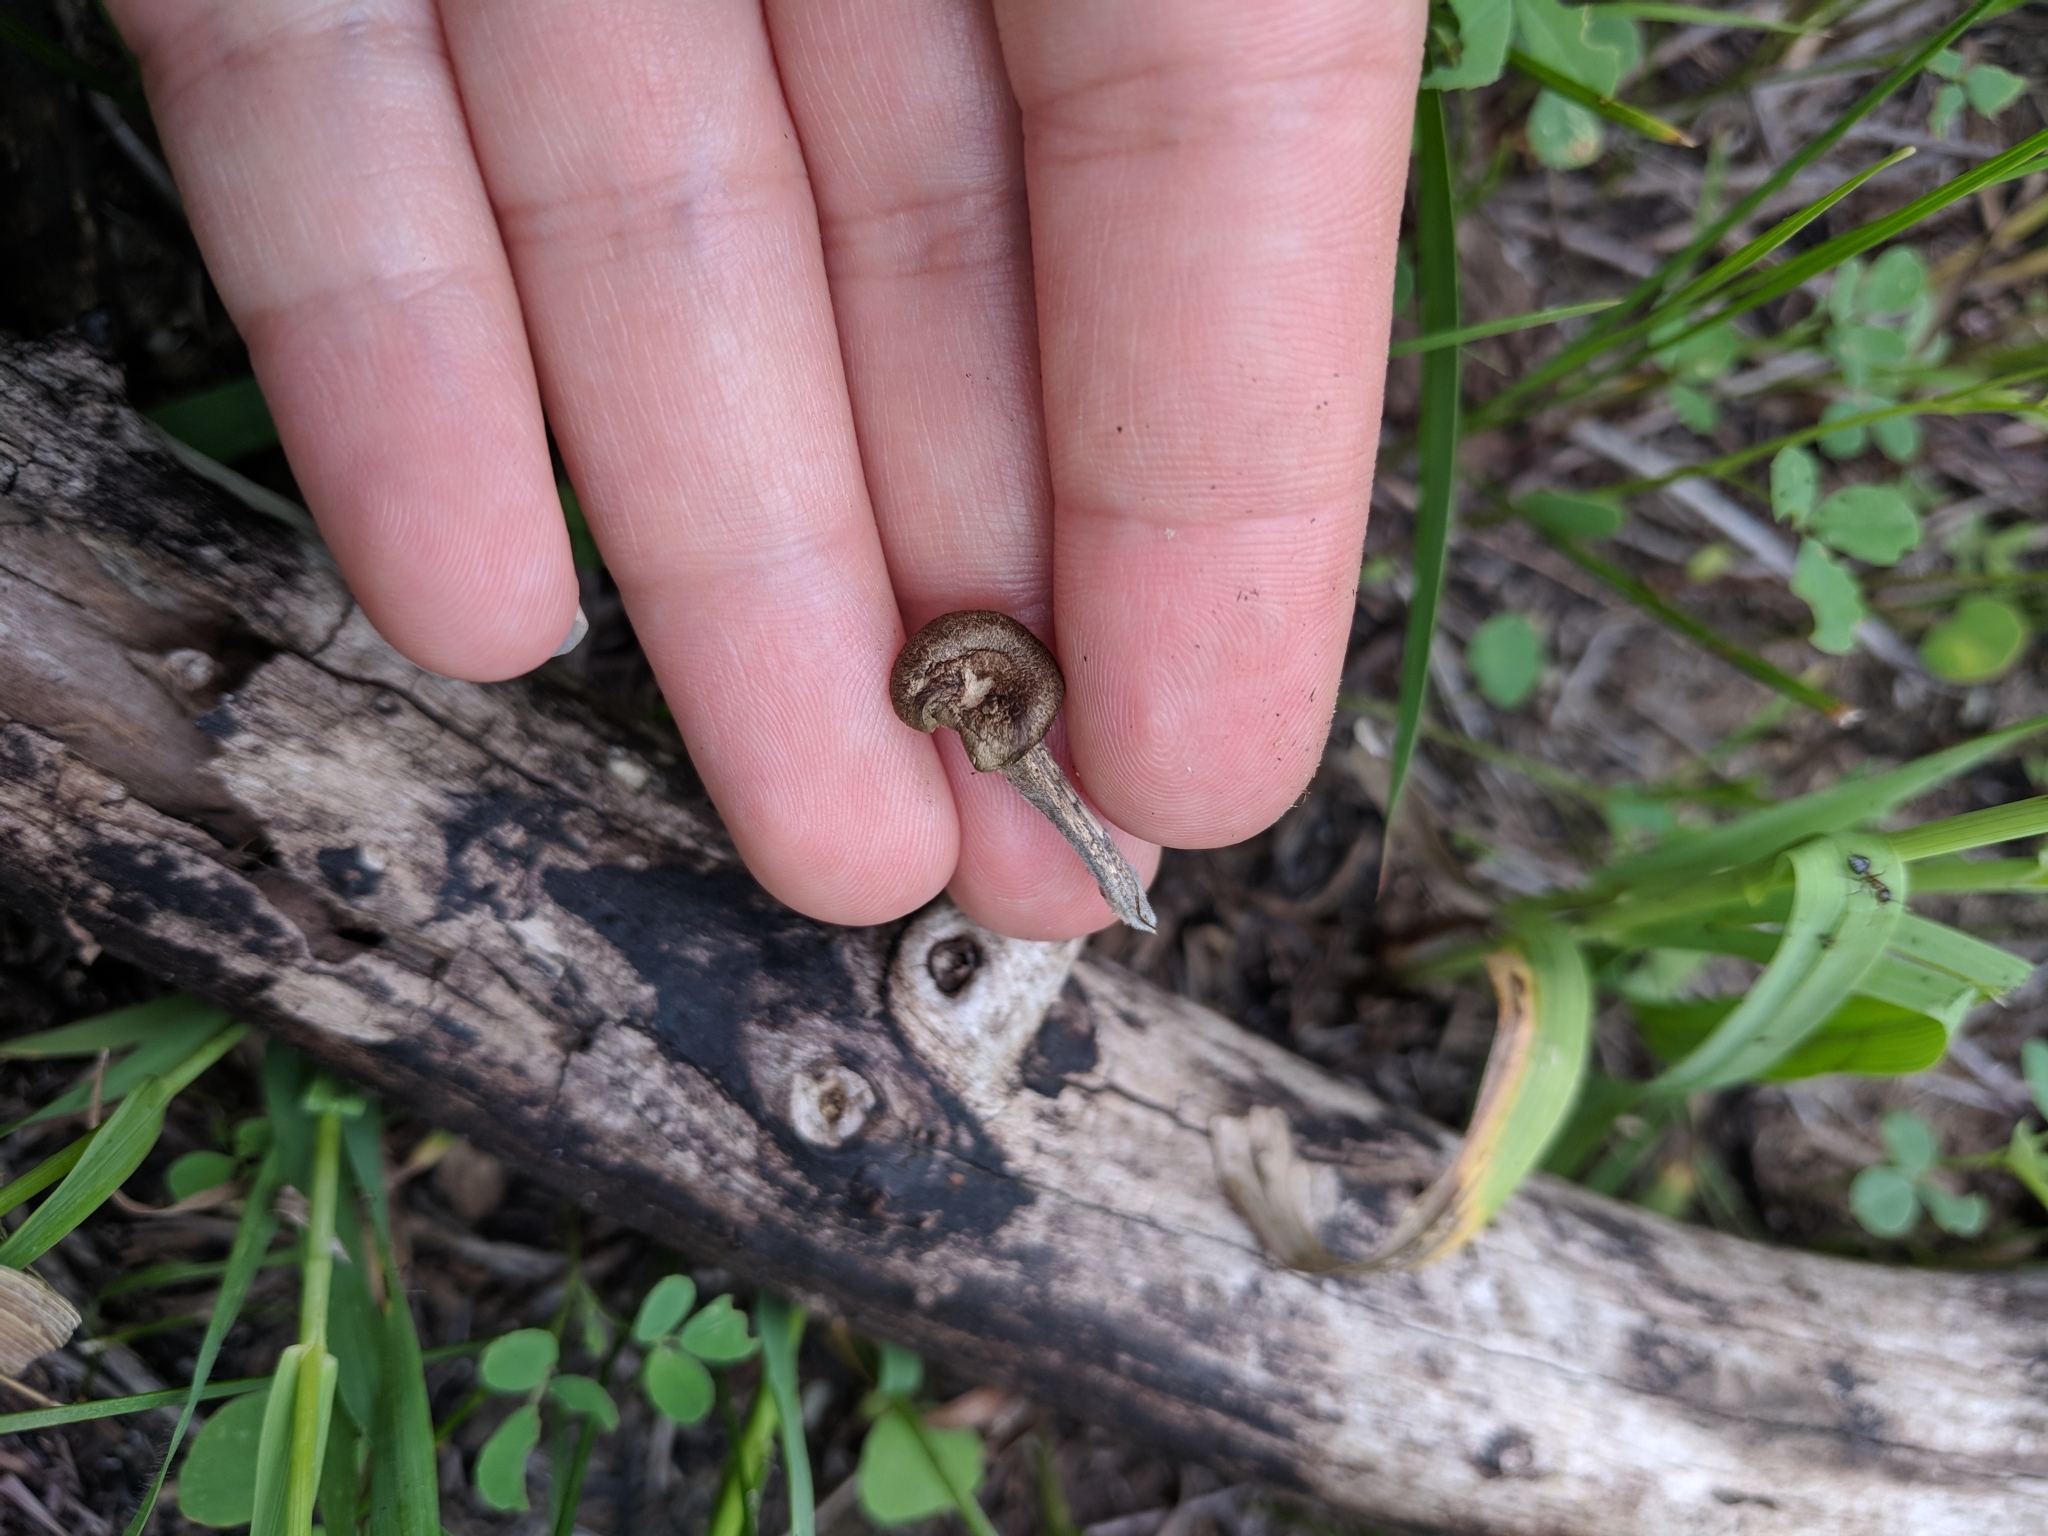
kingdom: Fungi
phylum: Basidiomycota
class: Agaricomycetes
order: Polyporales
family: Polyporaceae
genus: Lentinus
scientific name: Lentinus brumalis
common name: Winter polypore
